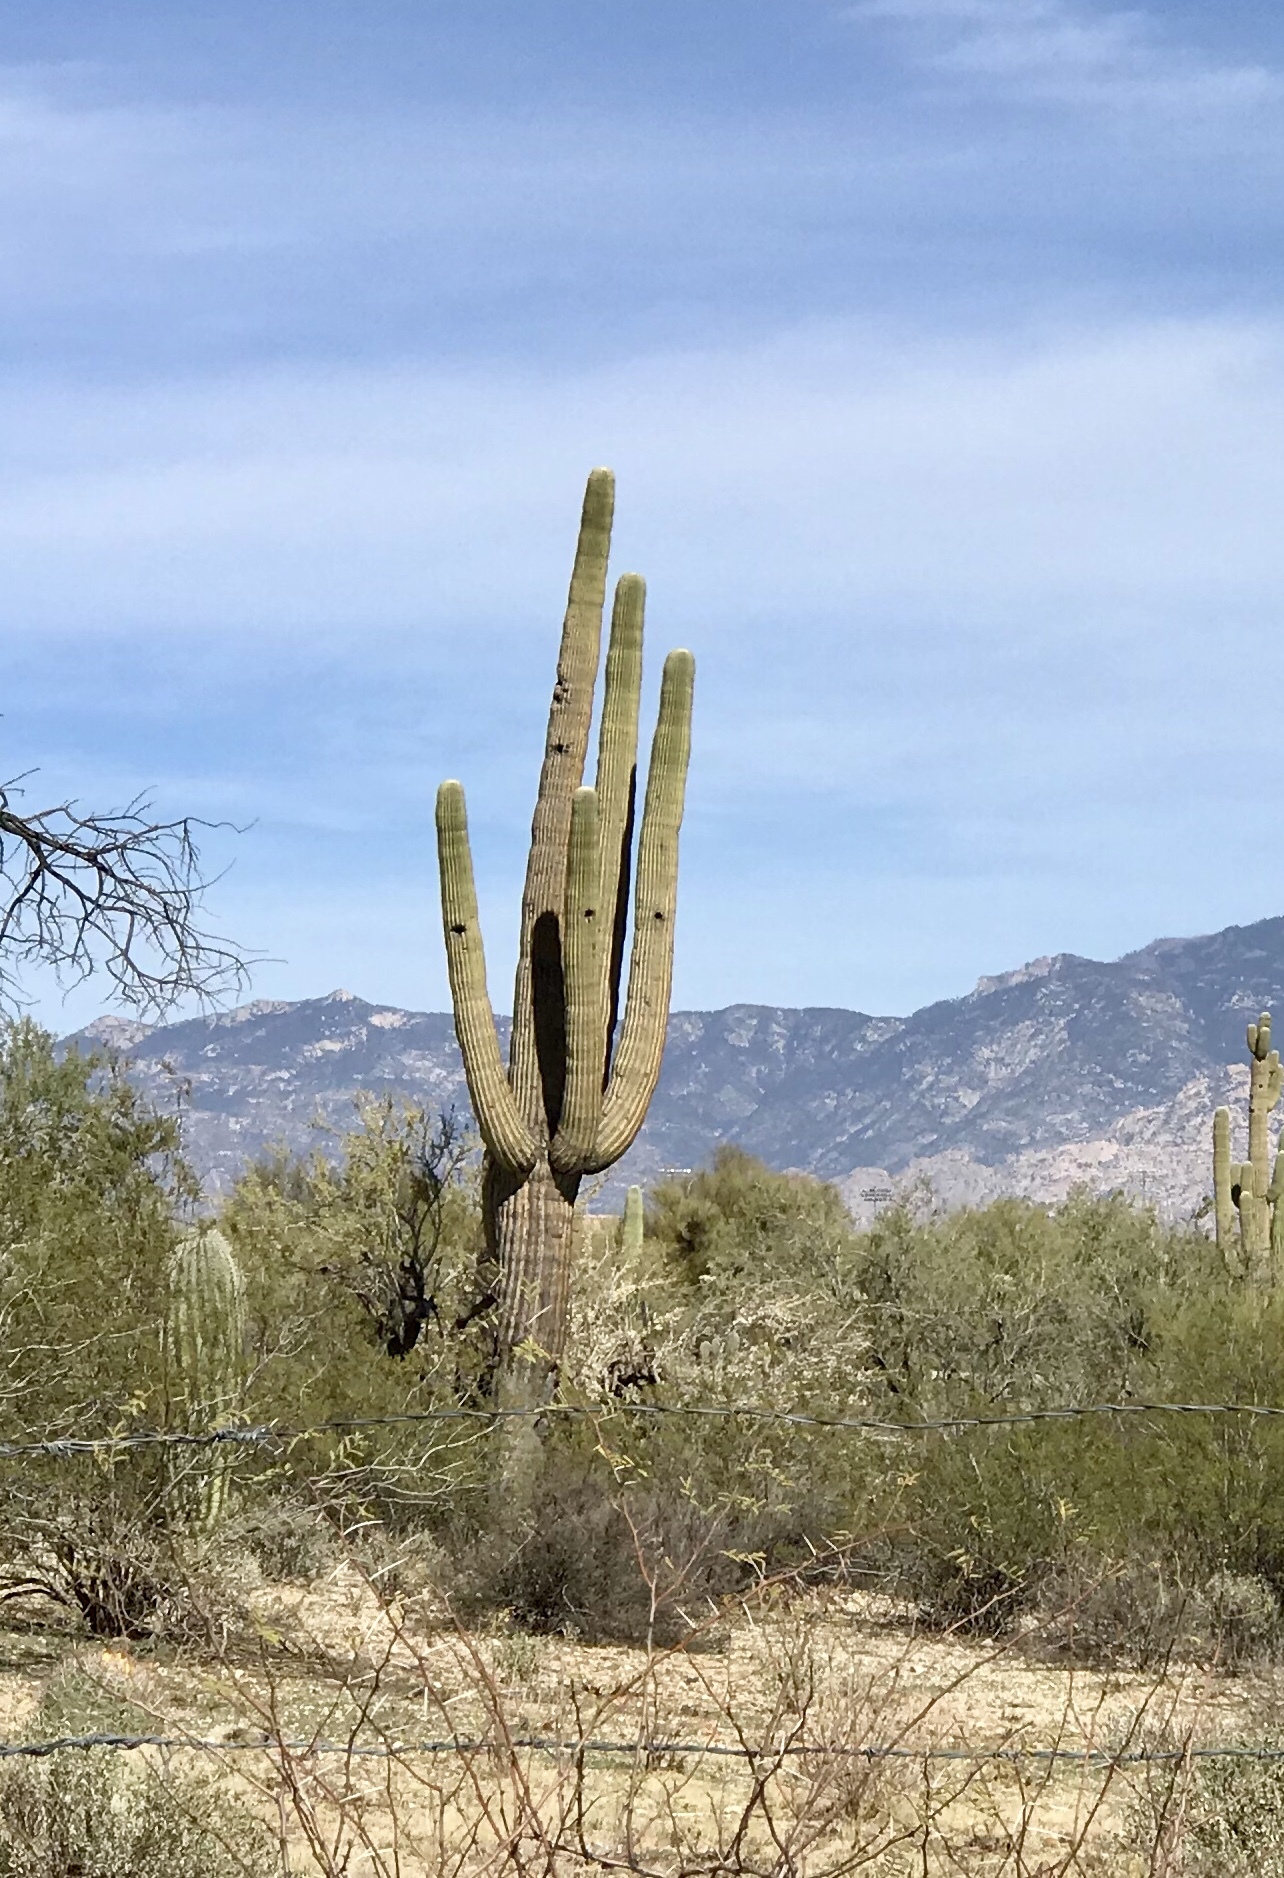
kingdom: Plantae
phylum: Tracheophyta
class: Magnoliopsida
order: Caryophyllales
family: Cactaceae
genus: Carnegiea
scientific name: Carnegiea gigantea
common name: Saguaro
